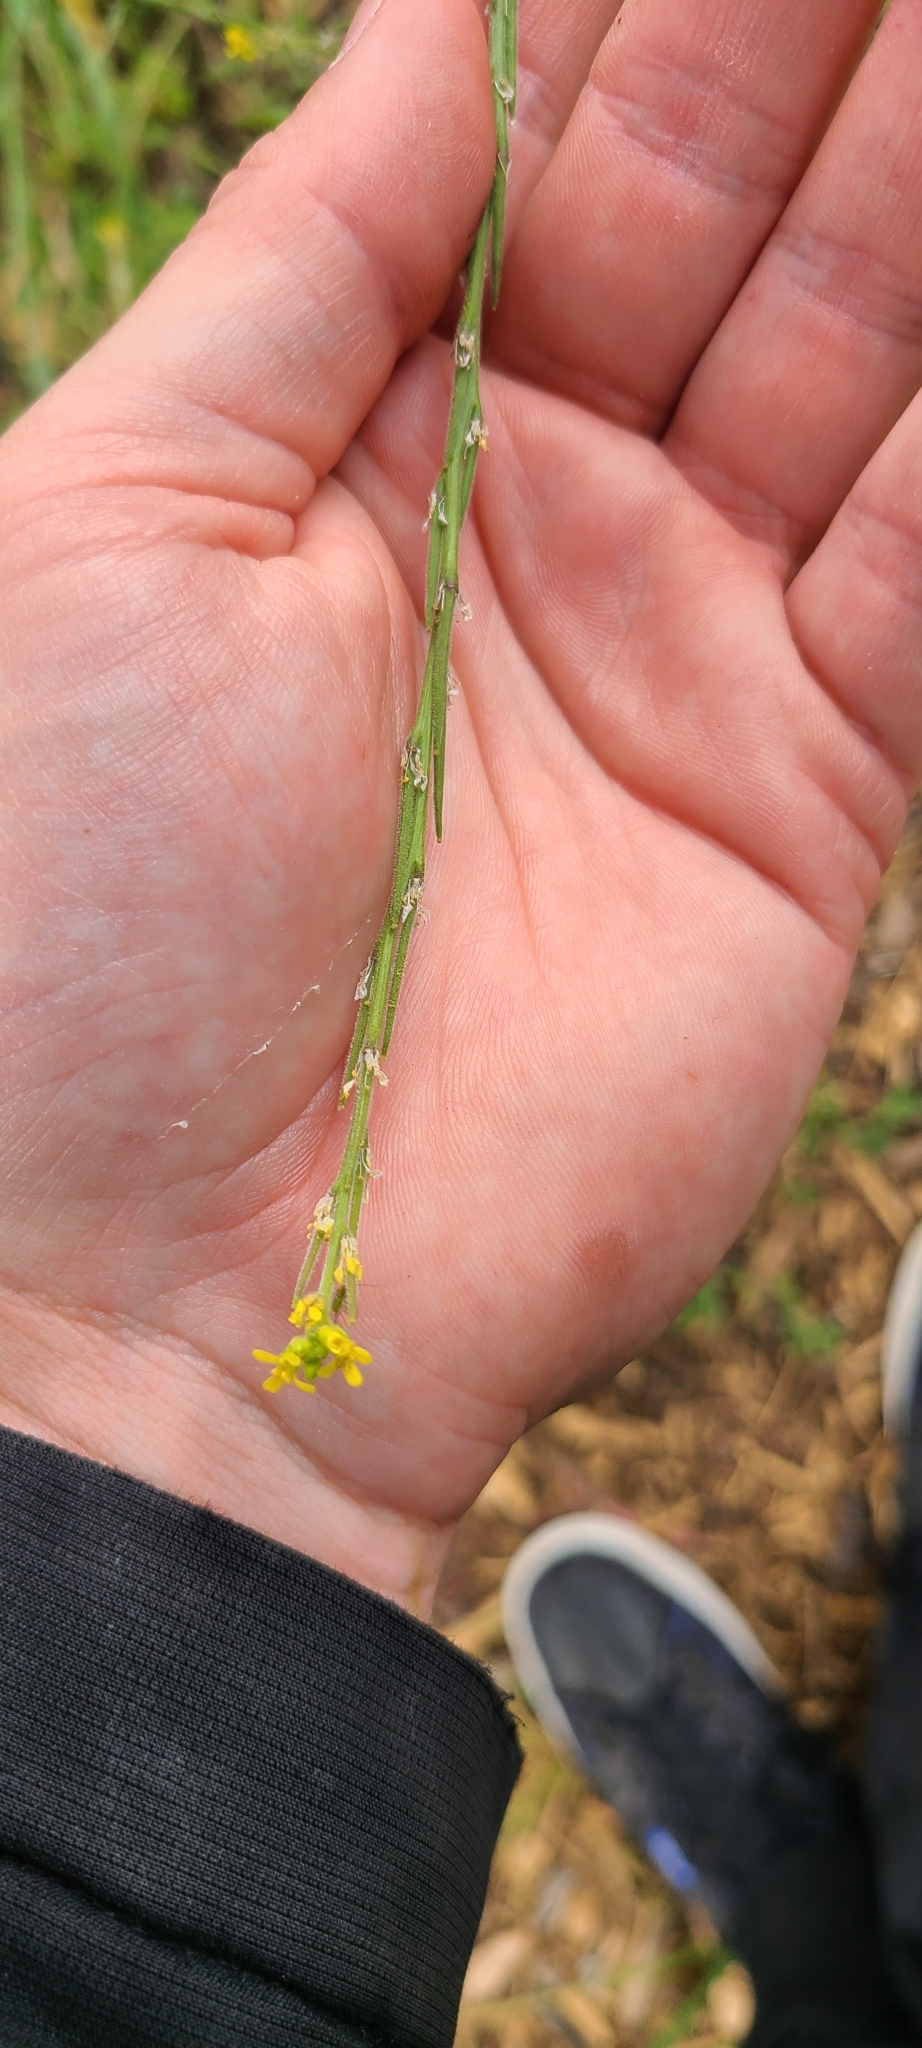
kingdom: Plantae
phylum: Tracheophyta
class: Magnoliopsida
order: Brassicales
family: Brassicaceae
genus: Sisymbrium
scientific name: Sisymbrium officinale
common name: Hedge mustard
